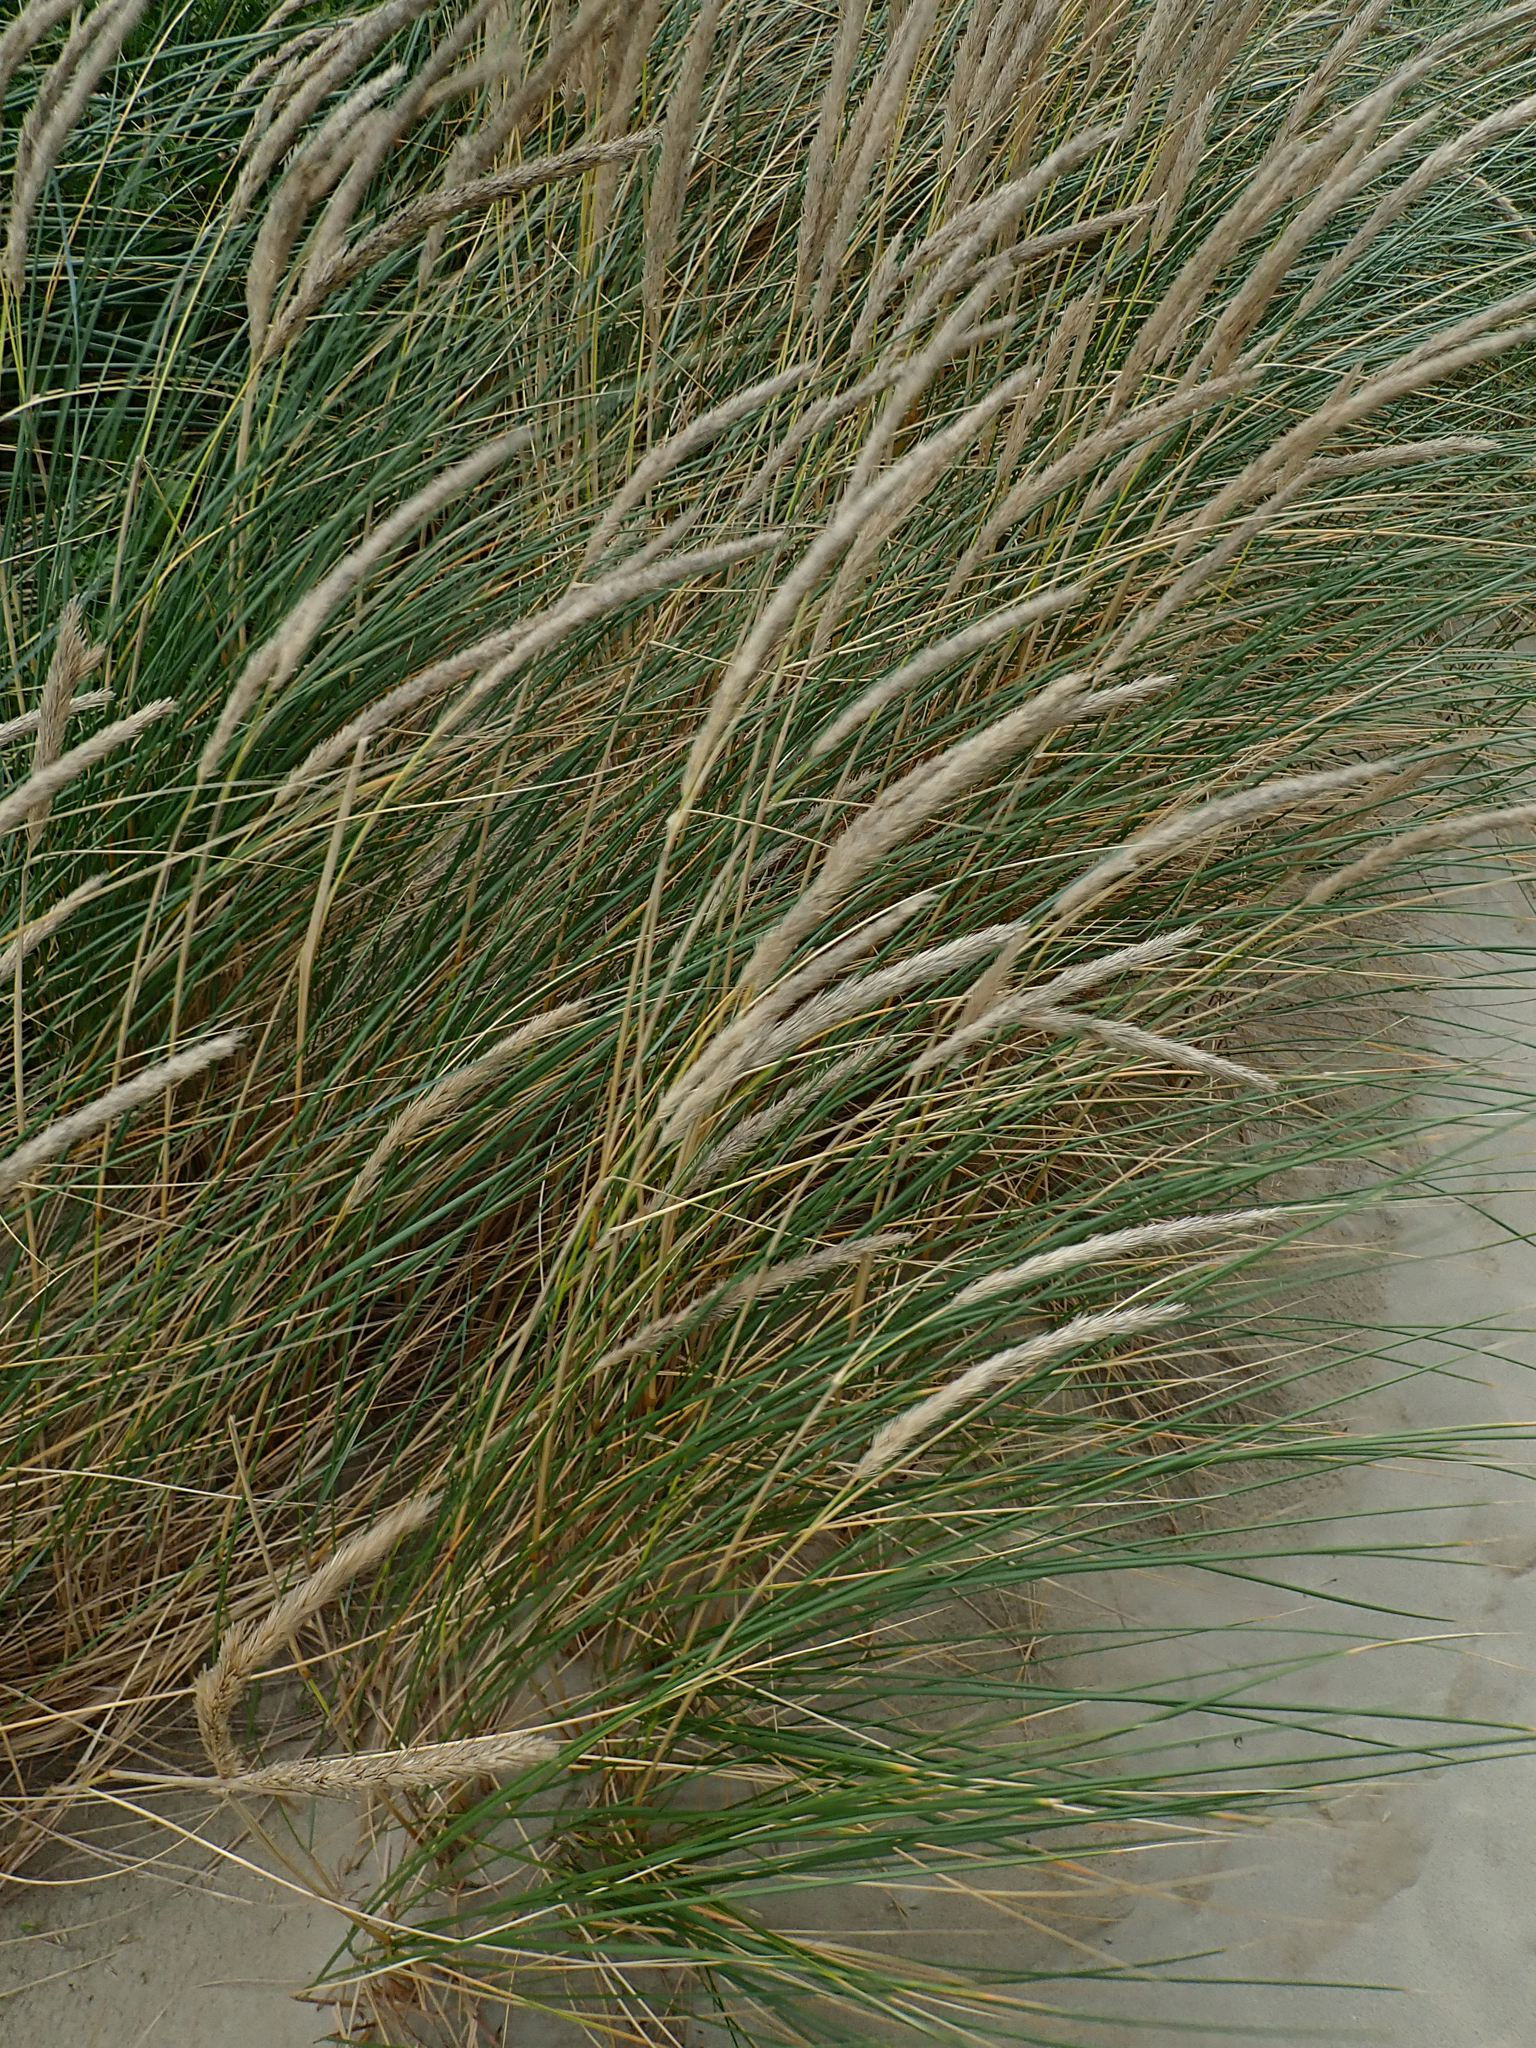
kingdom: Plantae
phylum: Tracheophyta
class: Liliopsida
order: Poales
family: Poaceae
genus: Calamagrostis
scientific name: Calamagrostis arenaria
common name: European beachgrass
